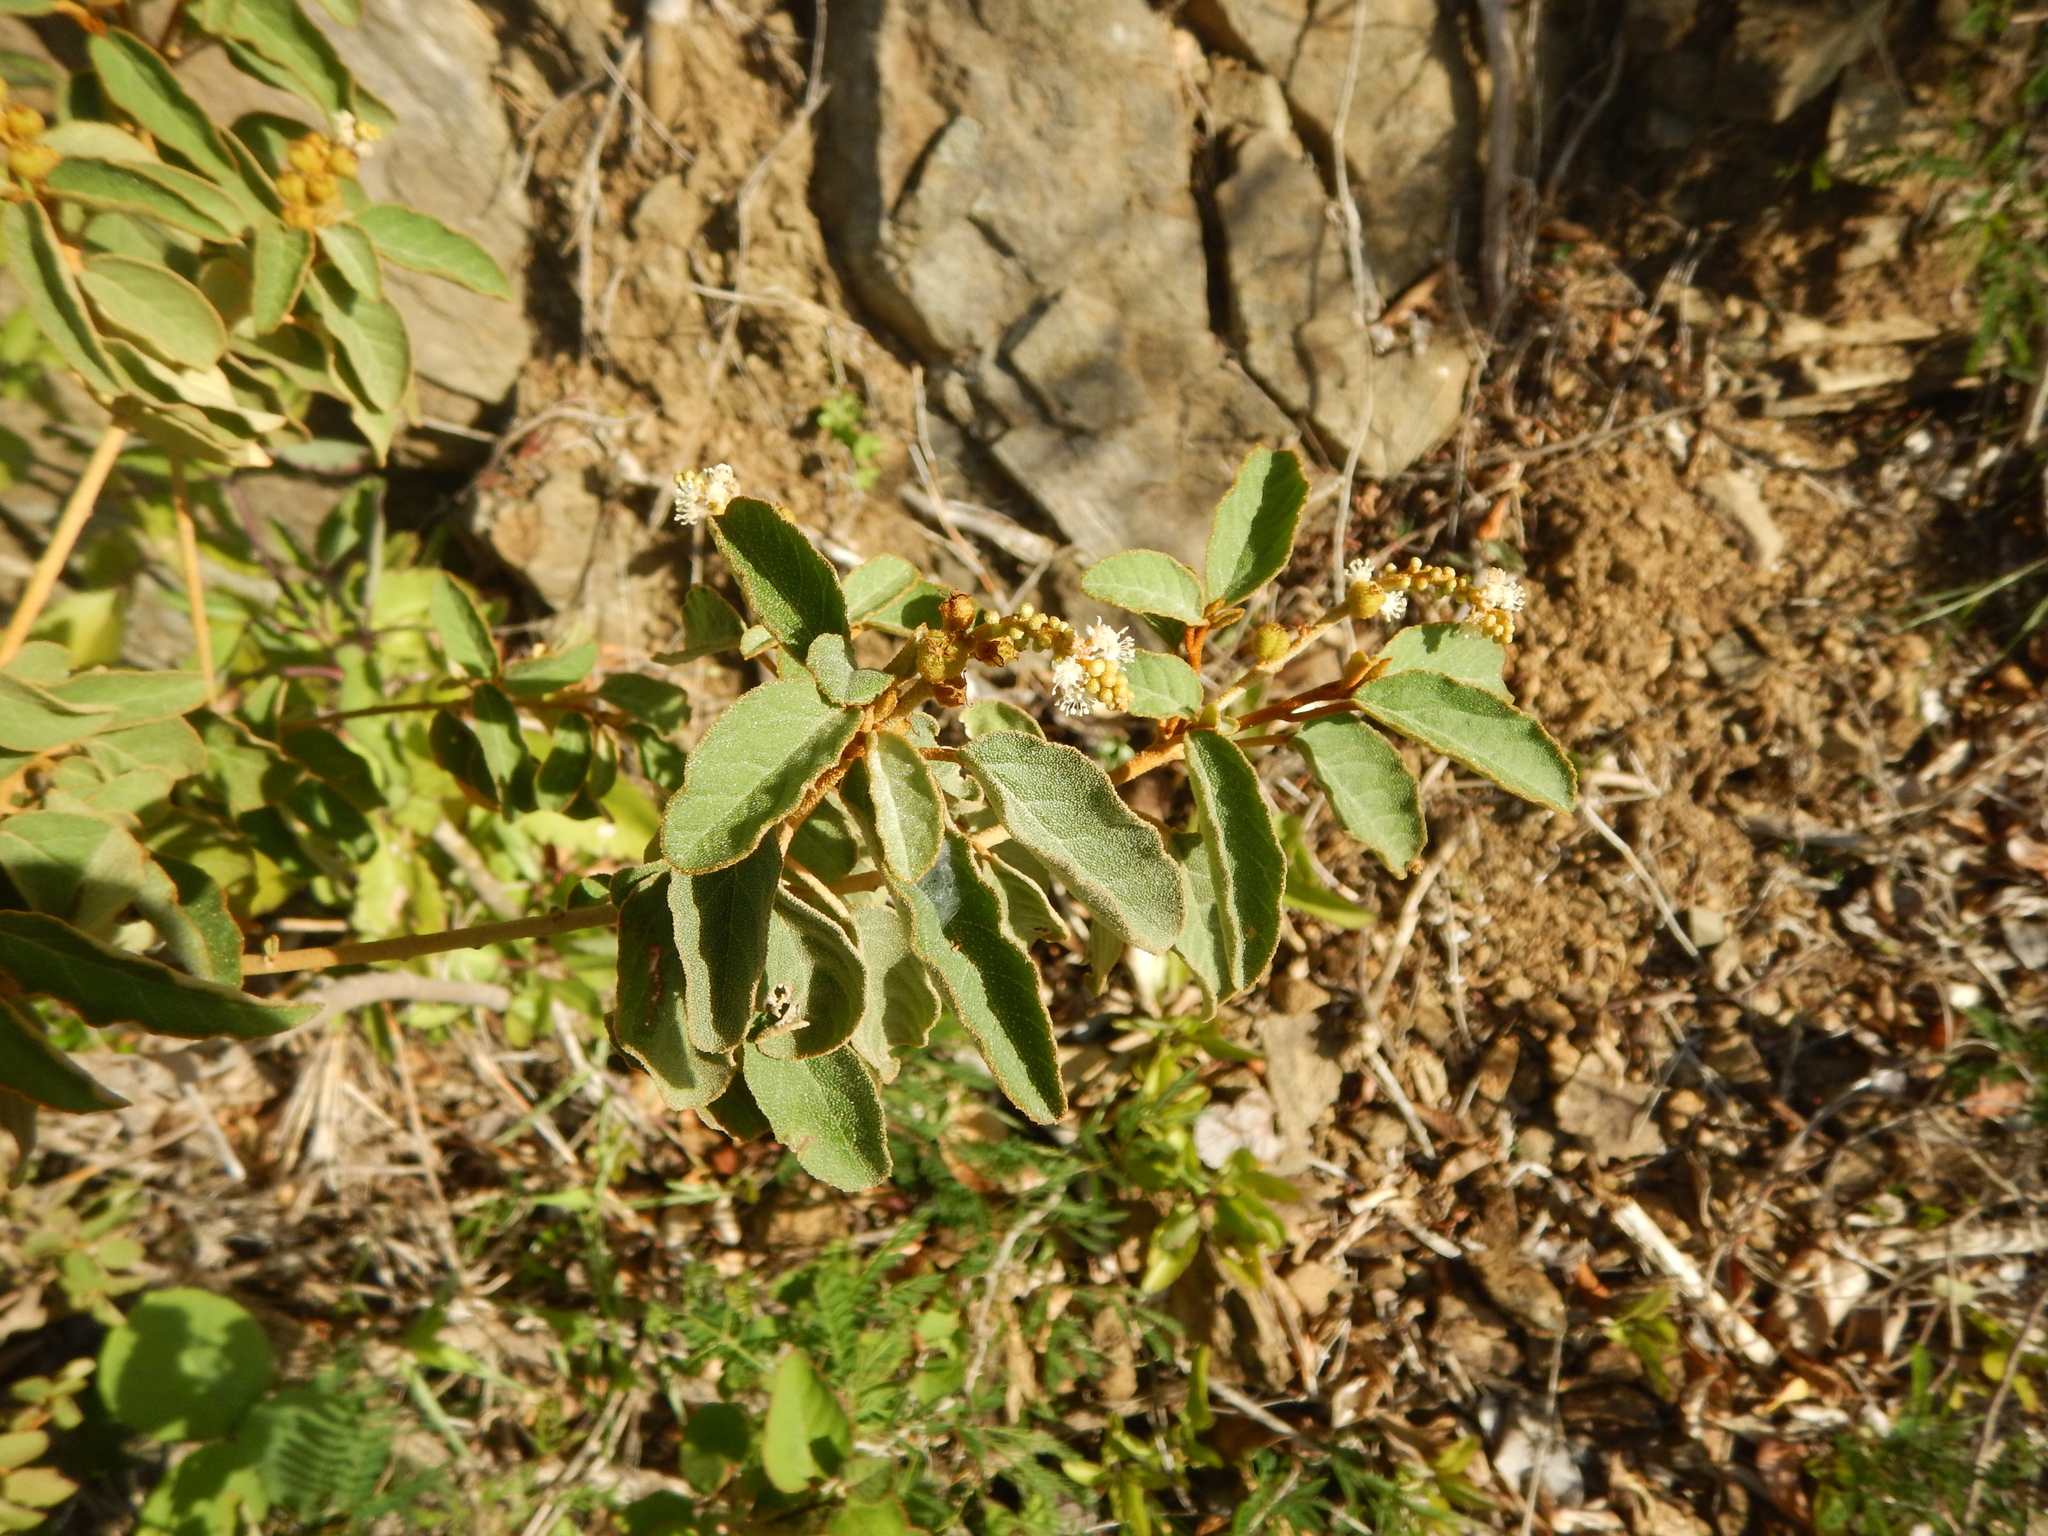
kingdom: Plantae
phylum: Tracheophyta
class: Magnoliopsida
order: Malpighiales
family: Euphorbiaceae
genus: Croton
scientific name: Croton flavens
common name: Yellow balsam
